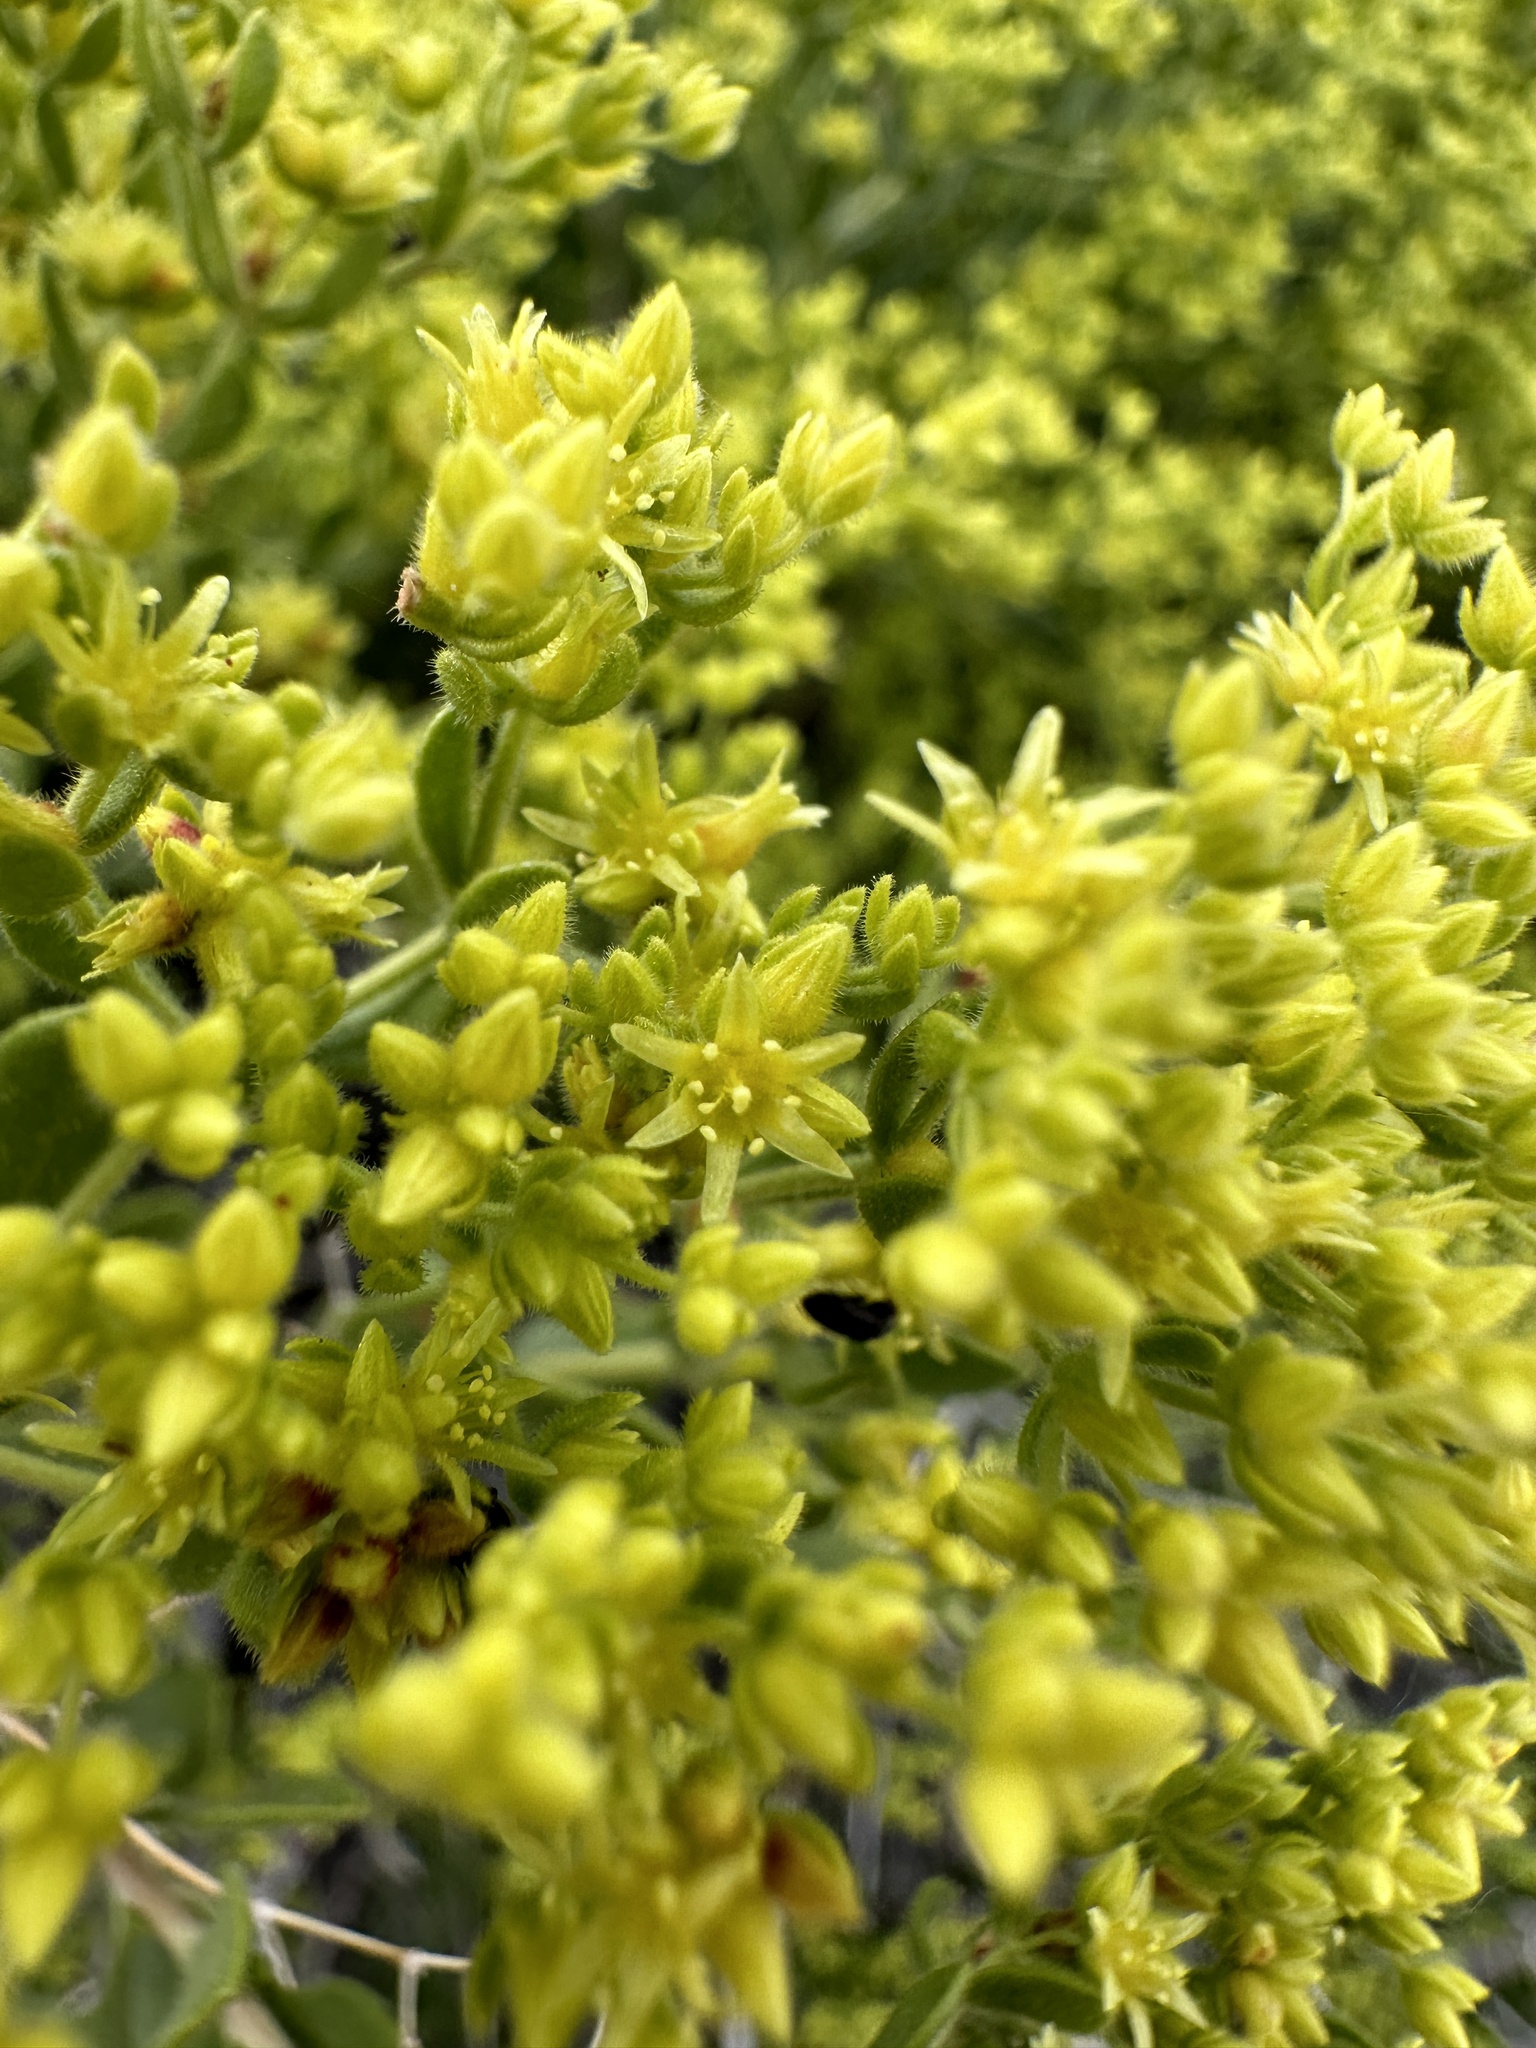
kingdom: Plantae
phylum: Tracheophyta
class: Magnoliopsida
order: Caryophyllales
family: Polygonaceae
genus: Dedeckera
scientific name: Dedeckera eurekensis
